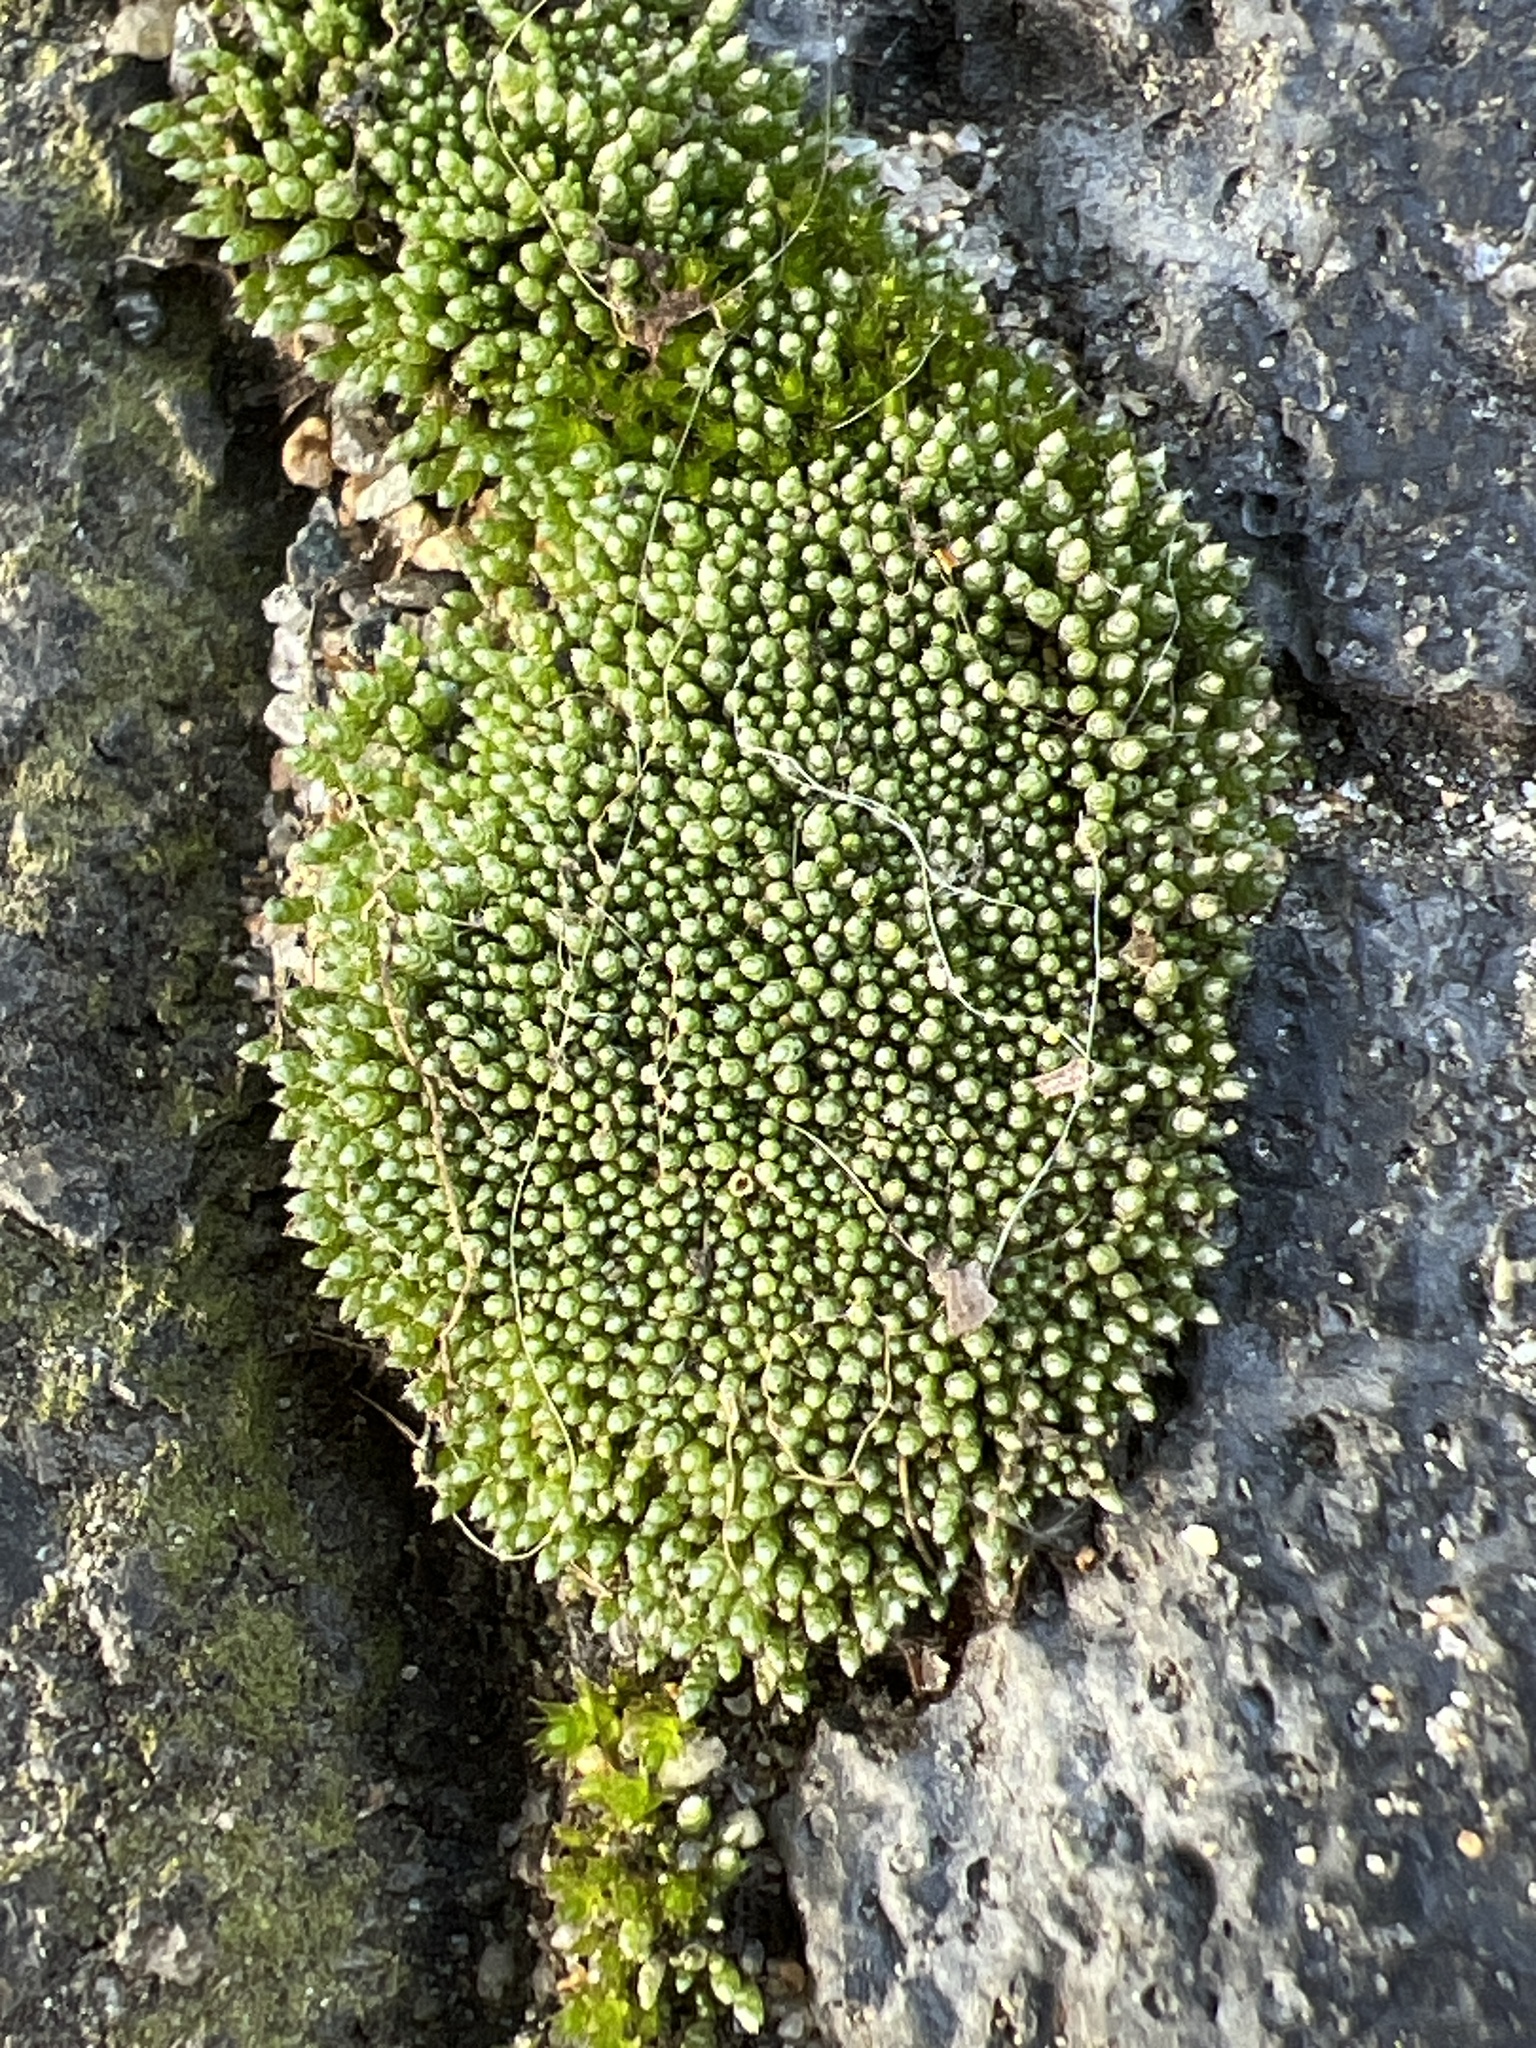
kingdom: Plantae
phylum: Bryophyta
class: Bryopsida
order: Bryales
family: Bryaceae
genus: Bryum
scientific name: Bryum argenteum
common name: Silver-moss
